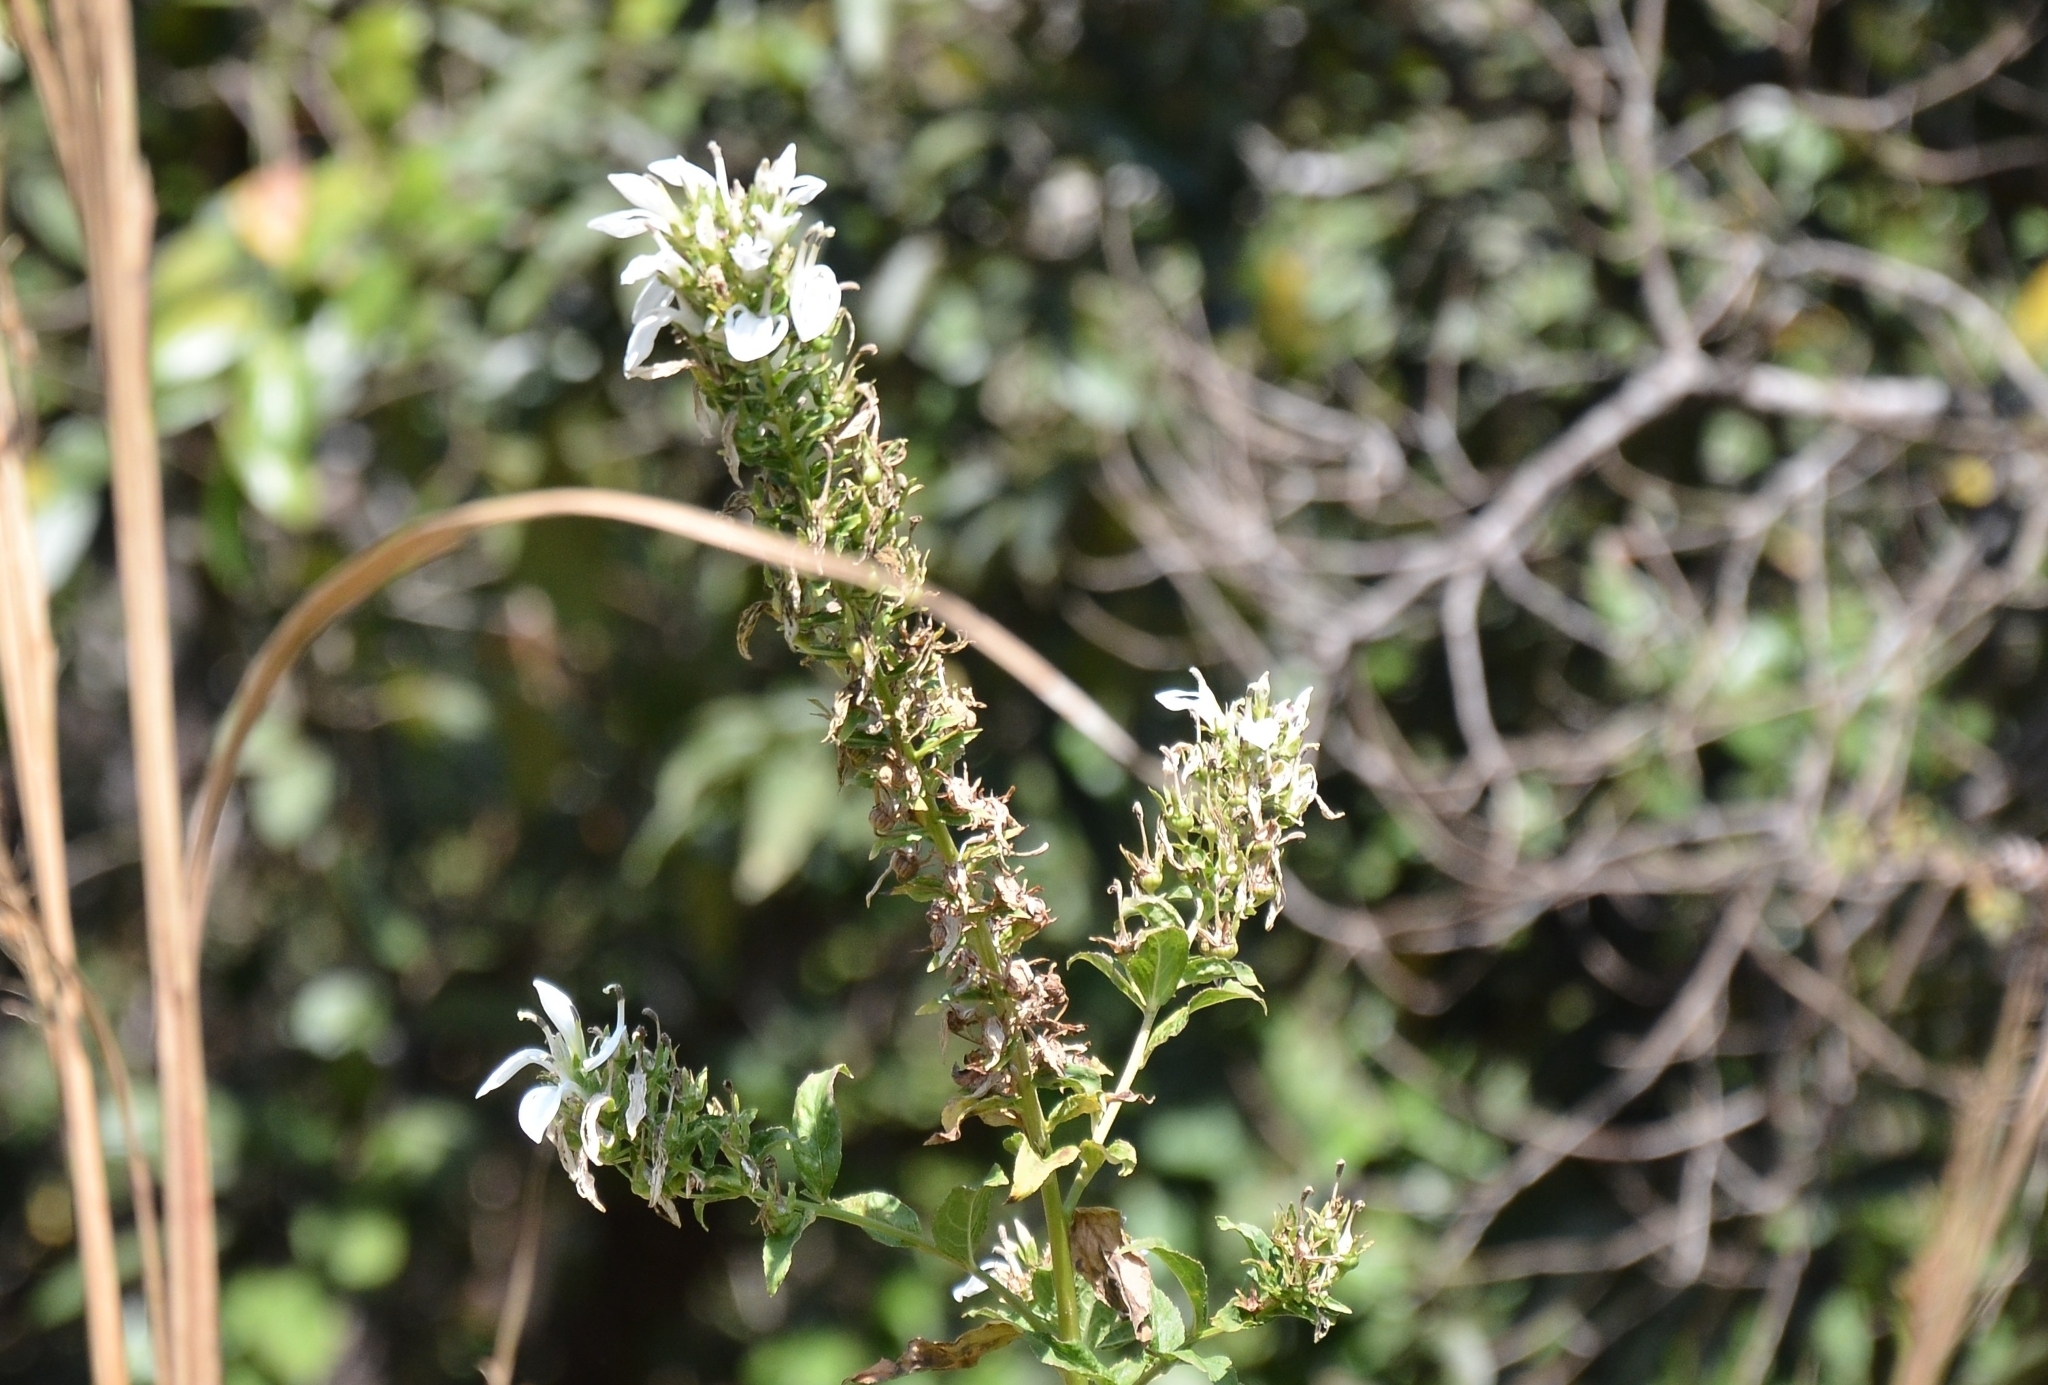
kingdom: Plantae
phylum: Tracheophyta
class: Magnoliopsida
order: Asterales
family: Campanulaceae
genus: Lobelia
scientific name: Lobelia nicotianifolia
